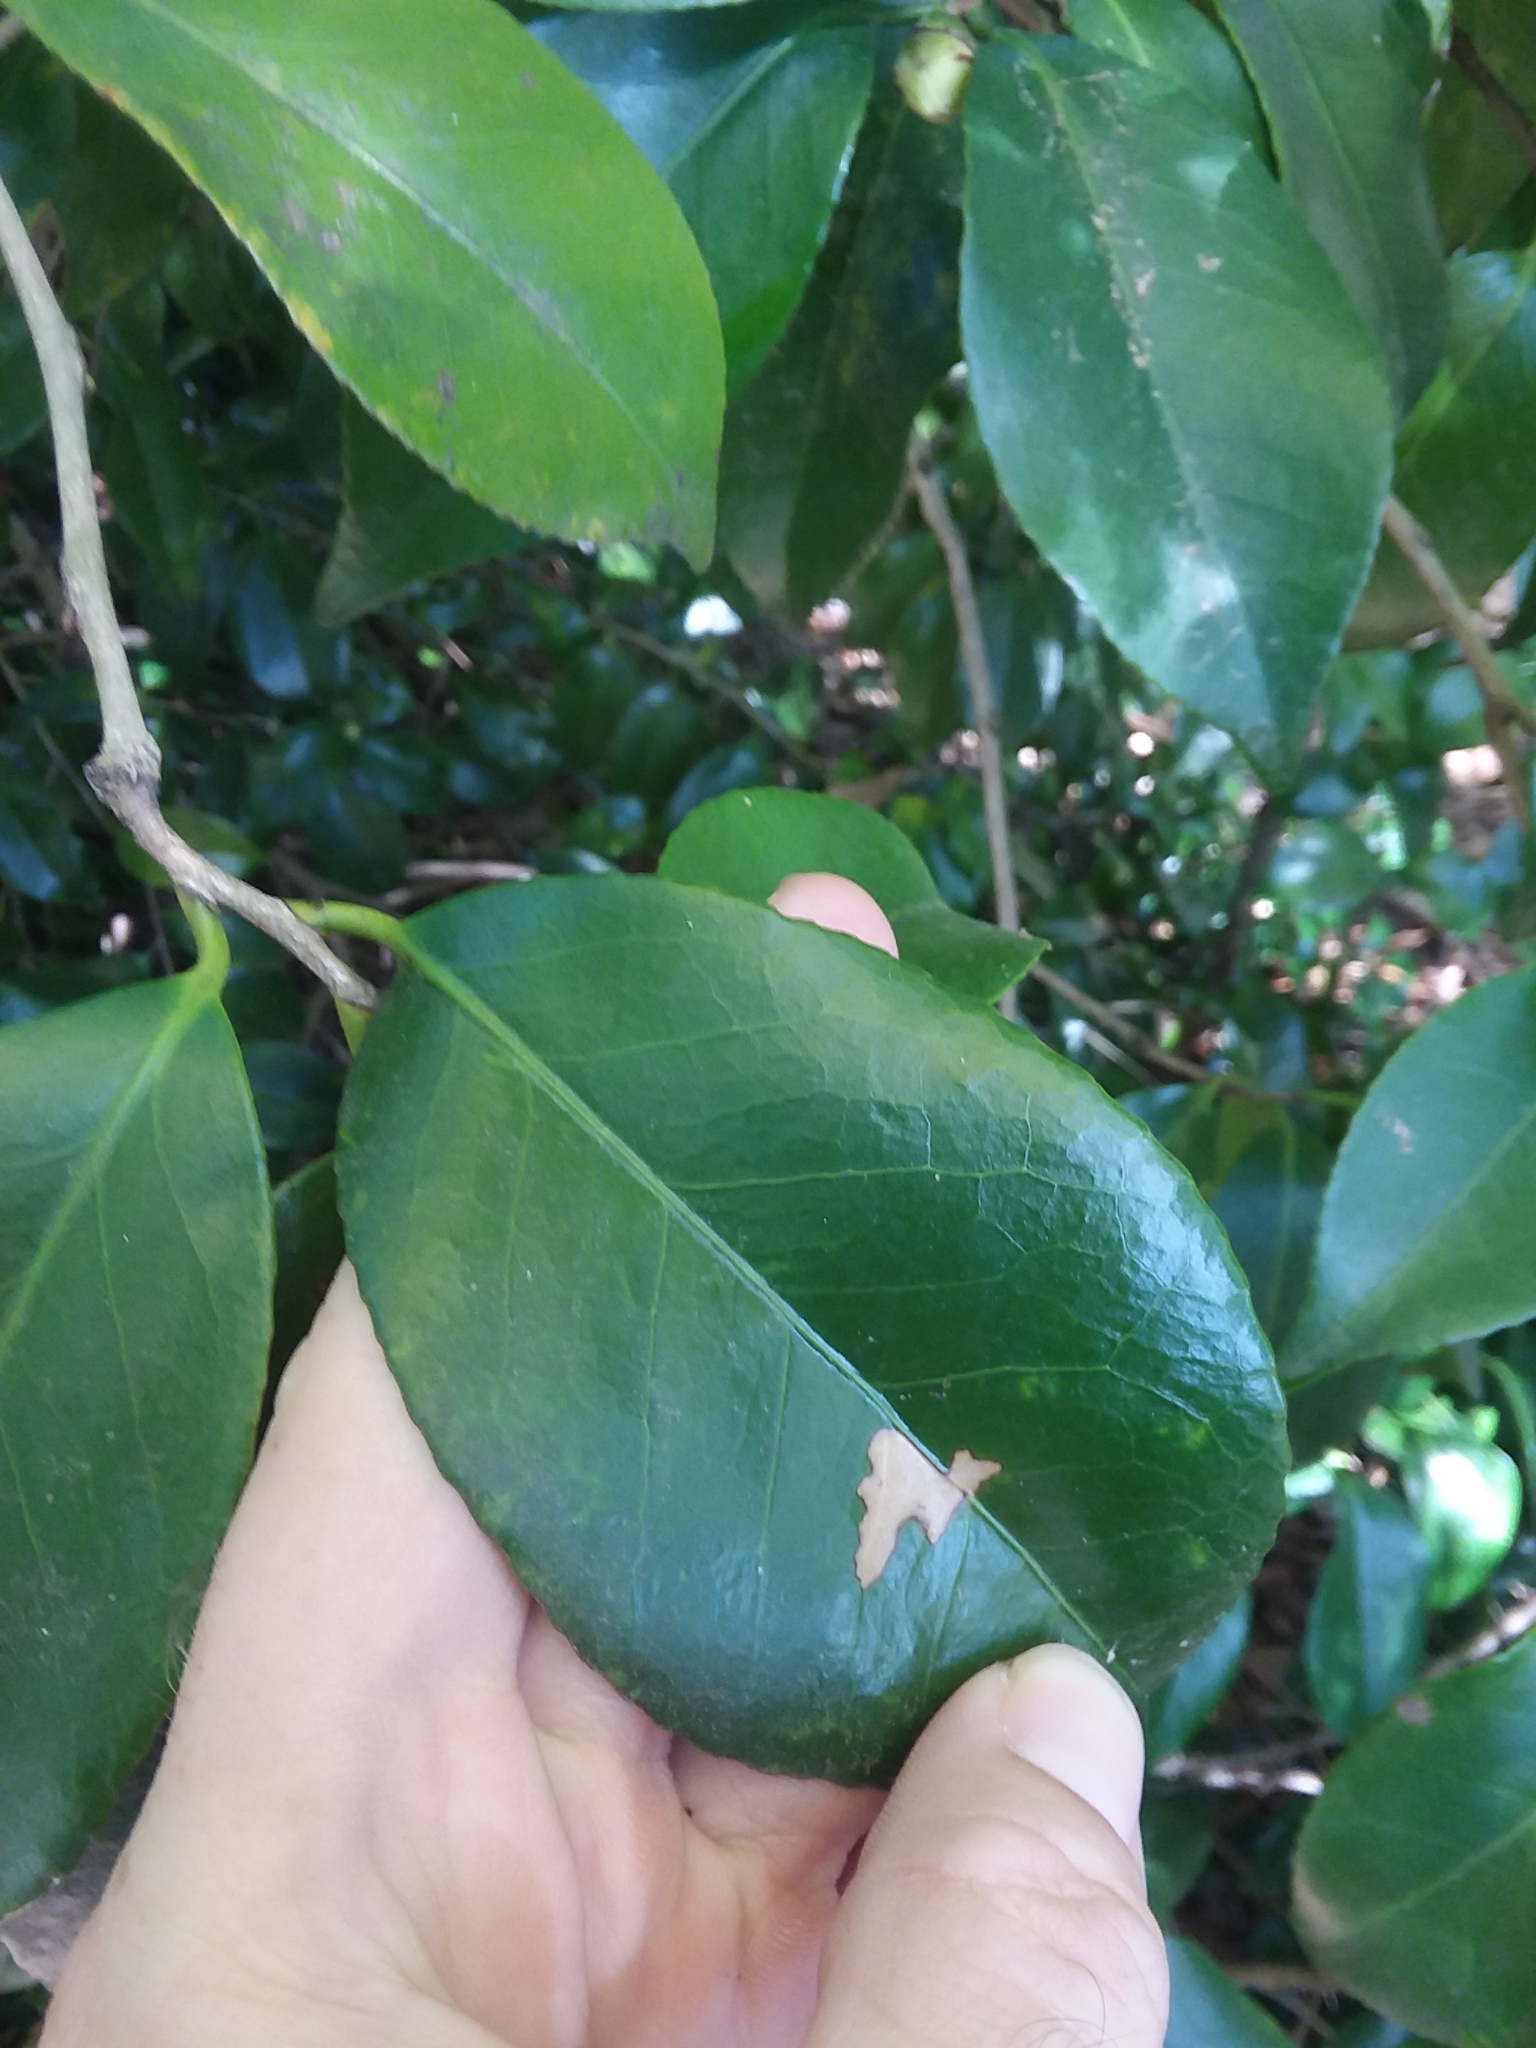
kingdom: Plantae
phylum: Tracheophyta
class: Magnoliopsida
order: Ericales
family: Theaceae
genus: Camellia
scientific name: Camellia japonica
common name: Camellia
